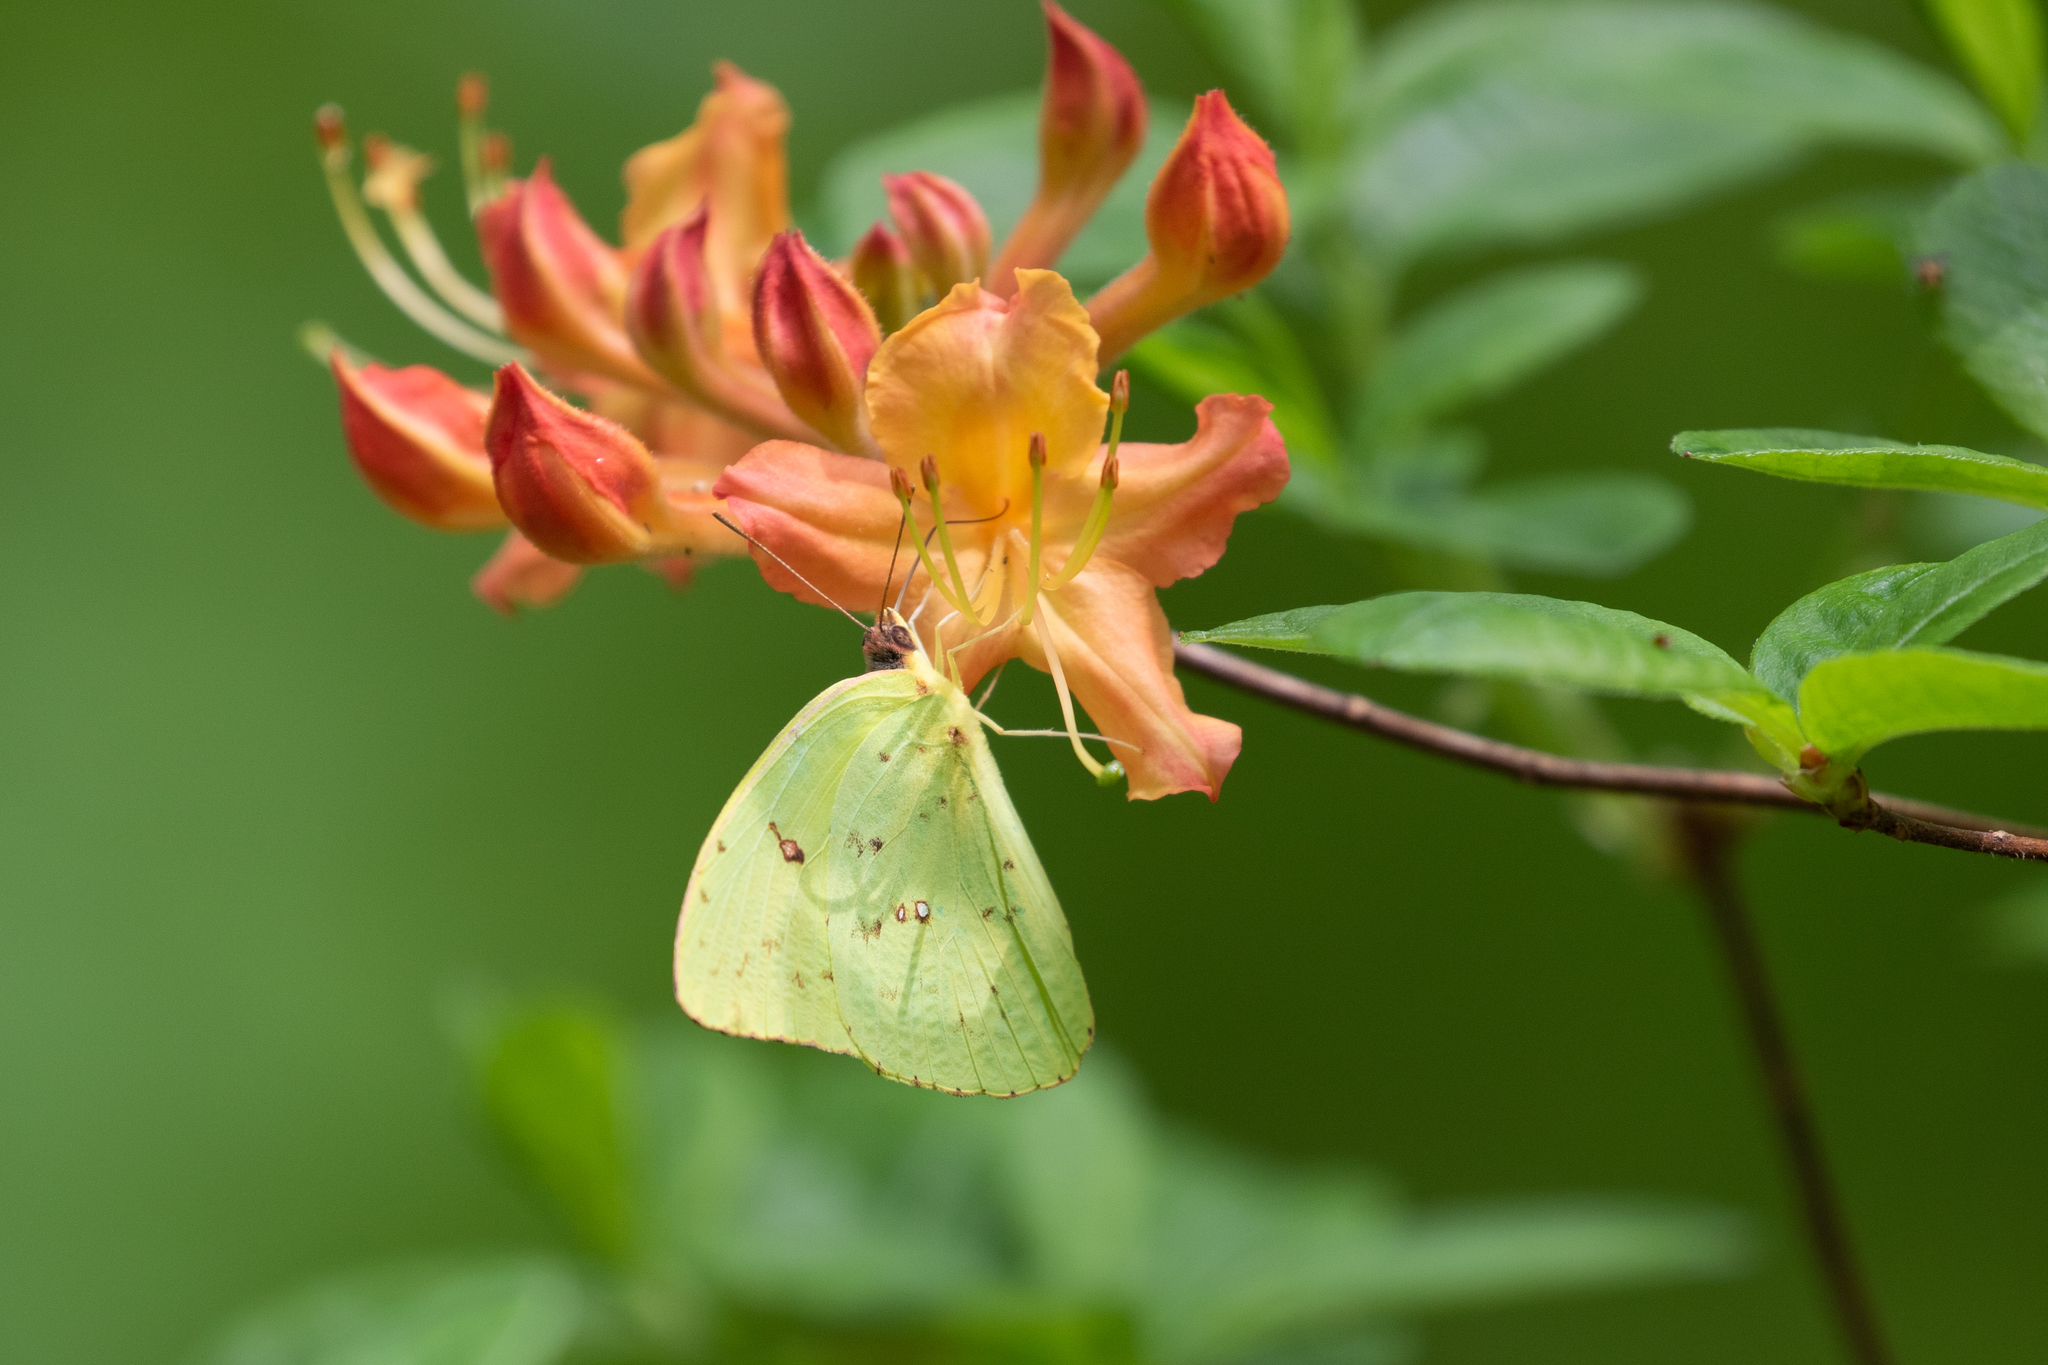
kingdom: Animalia
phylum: Arthropoda
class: Insecta
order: Lepidoptera
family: Pieridae
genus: Phoebis
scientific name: Phoebis sennae
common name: Cloudless sulphur
